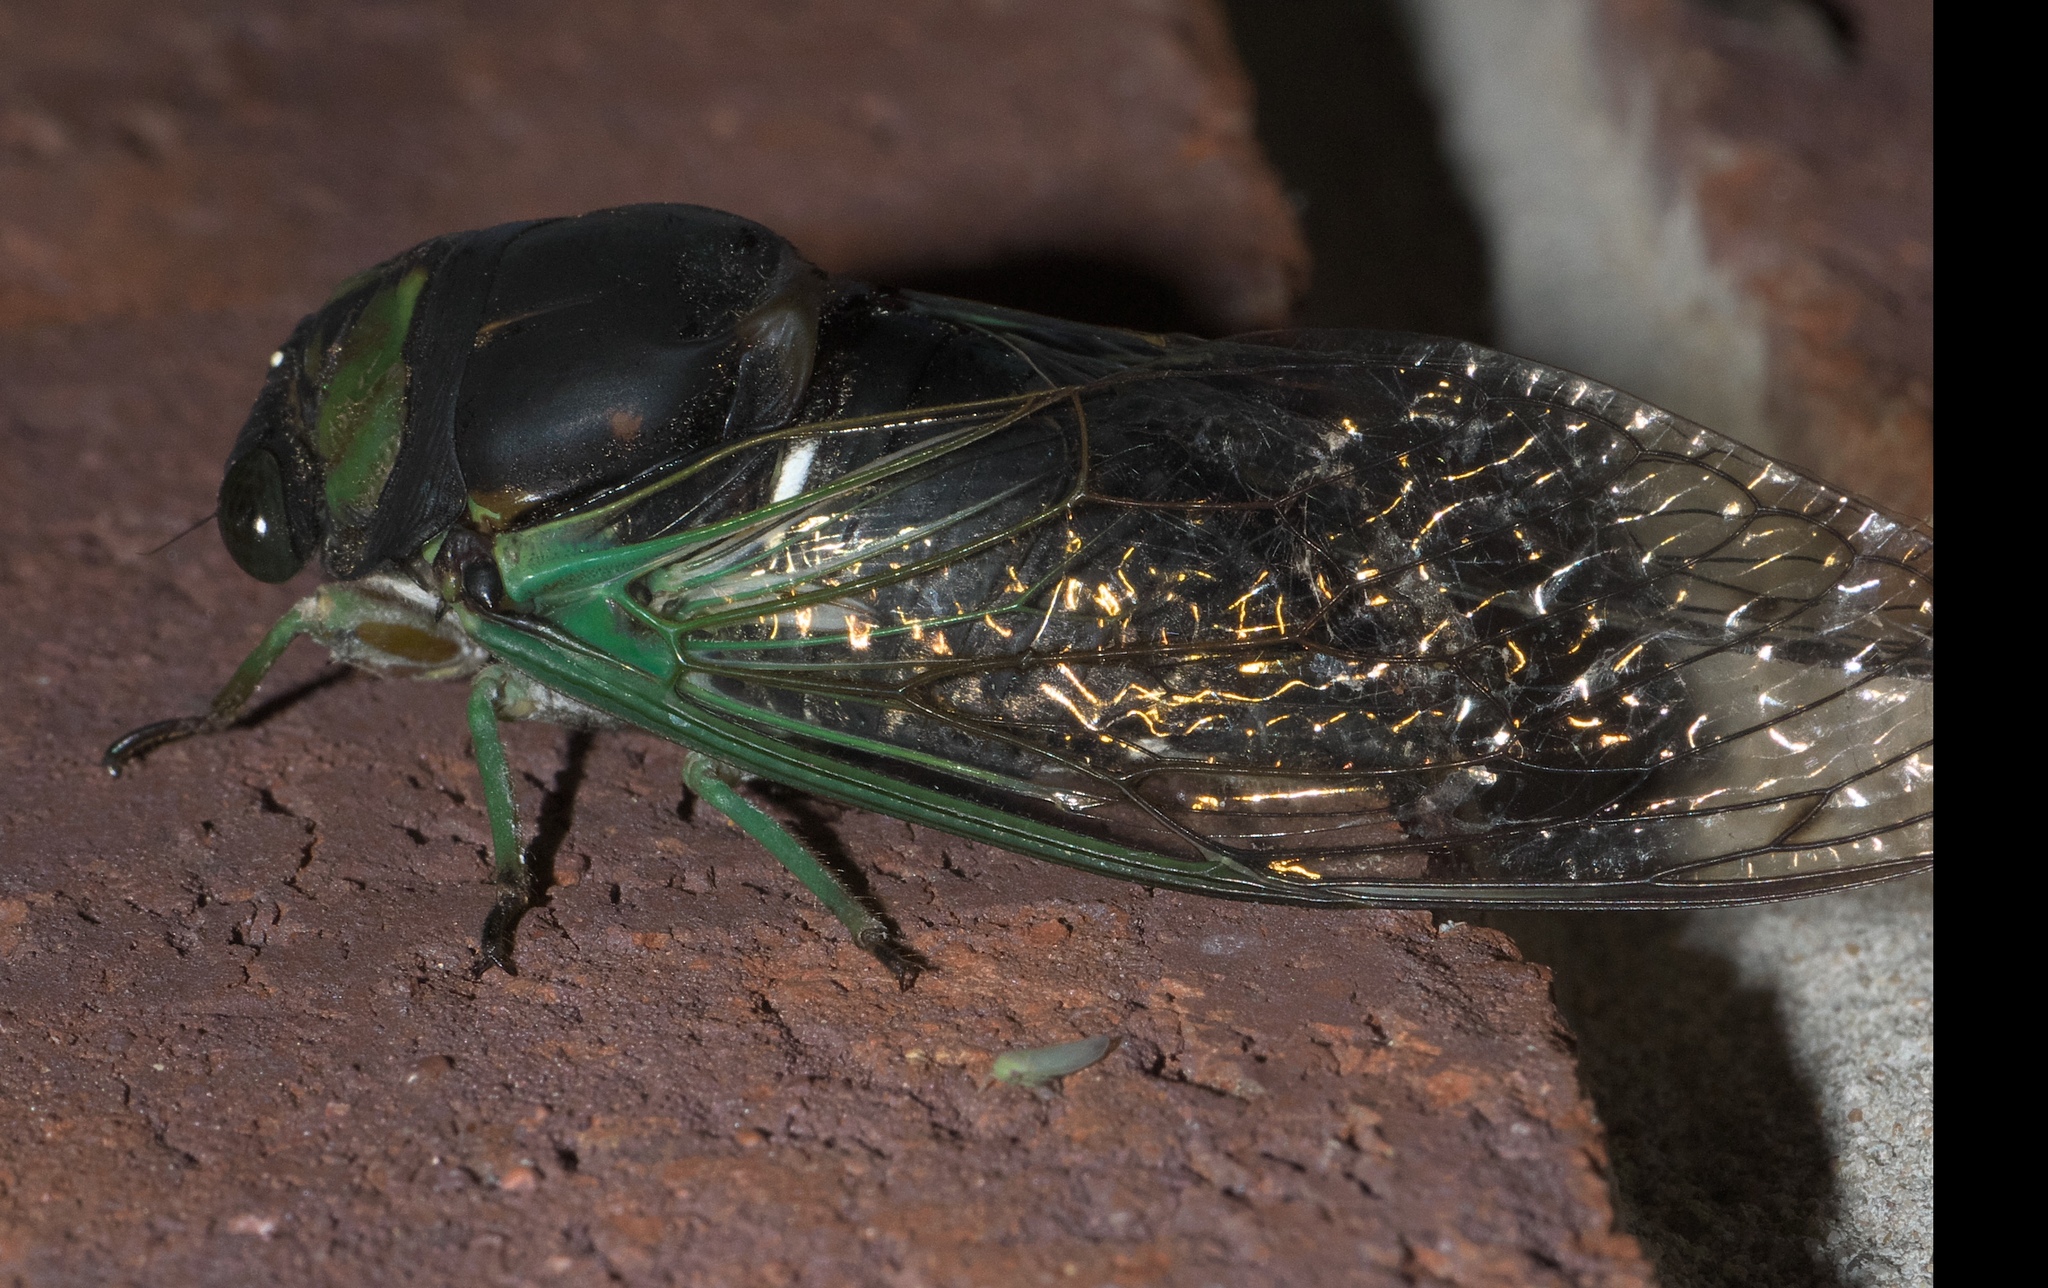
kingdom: Animalia
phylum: Arthropoda
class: Insecta
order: Hemiptera
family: Cicadidae
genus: Neotibicen
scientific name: Neotibicen tibicen
